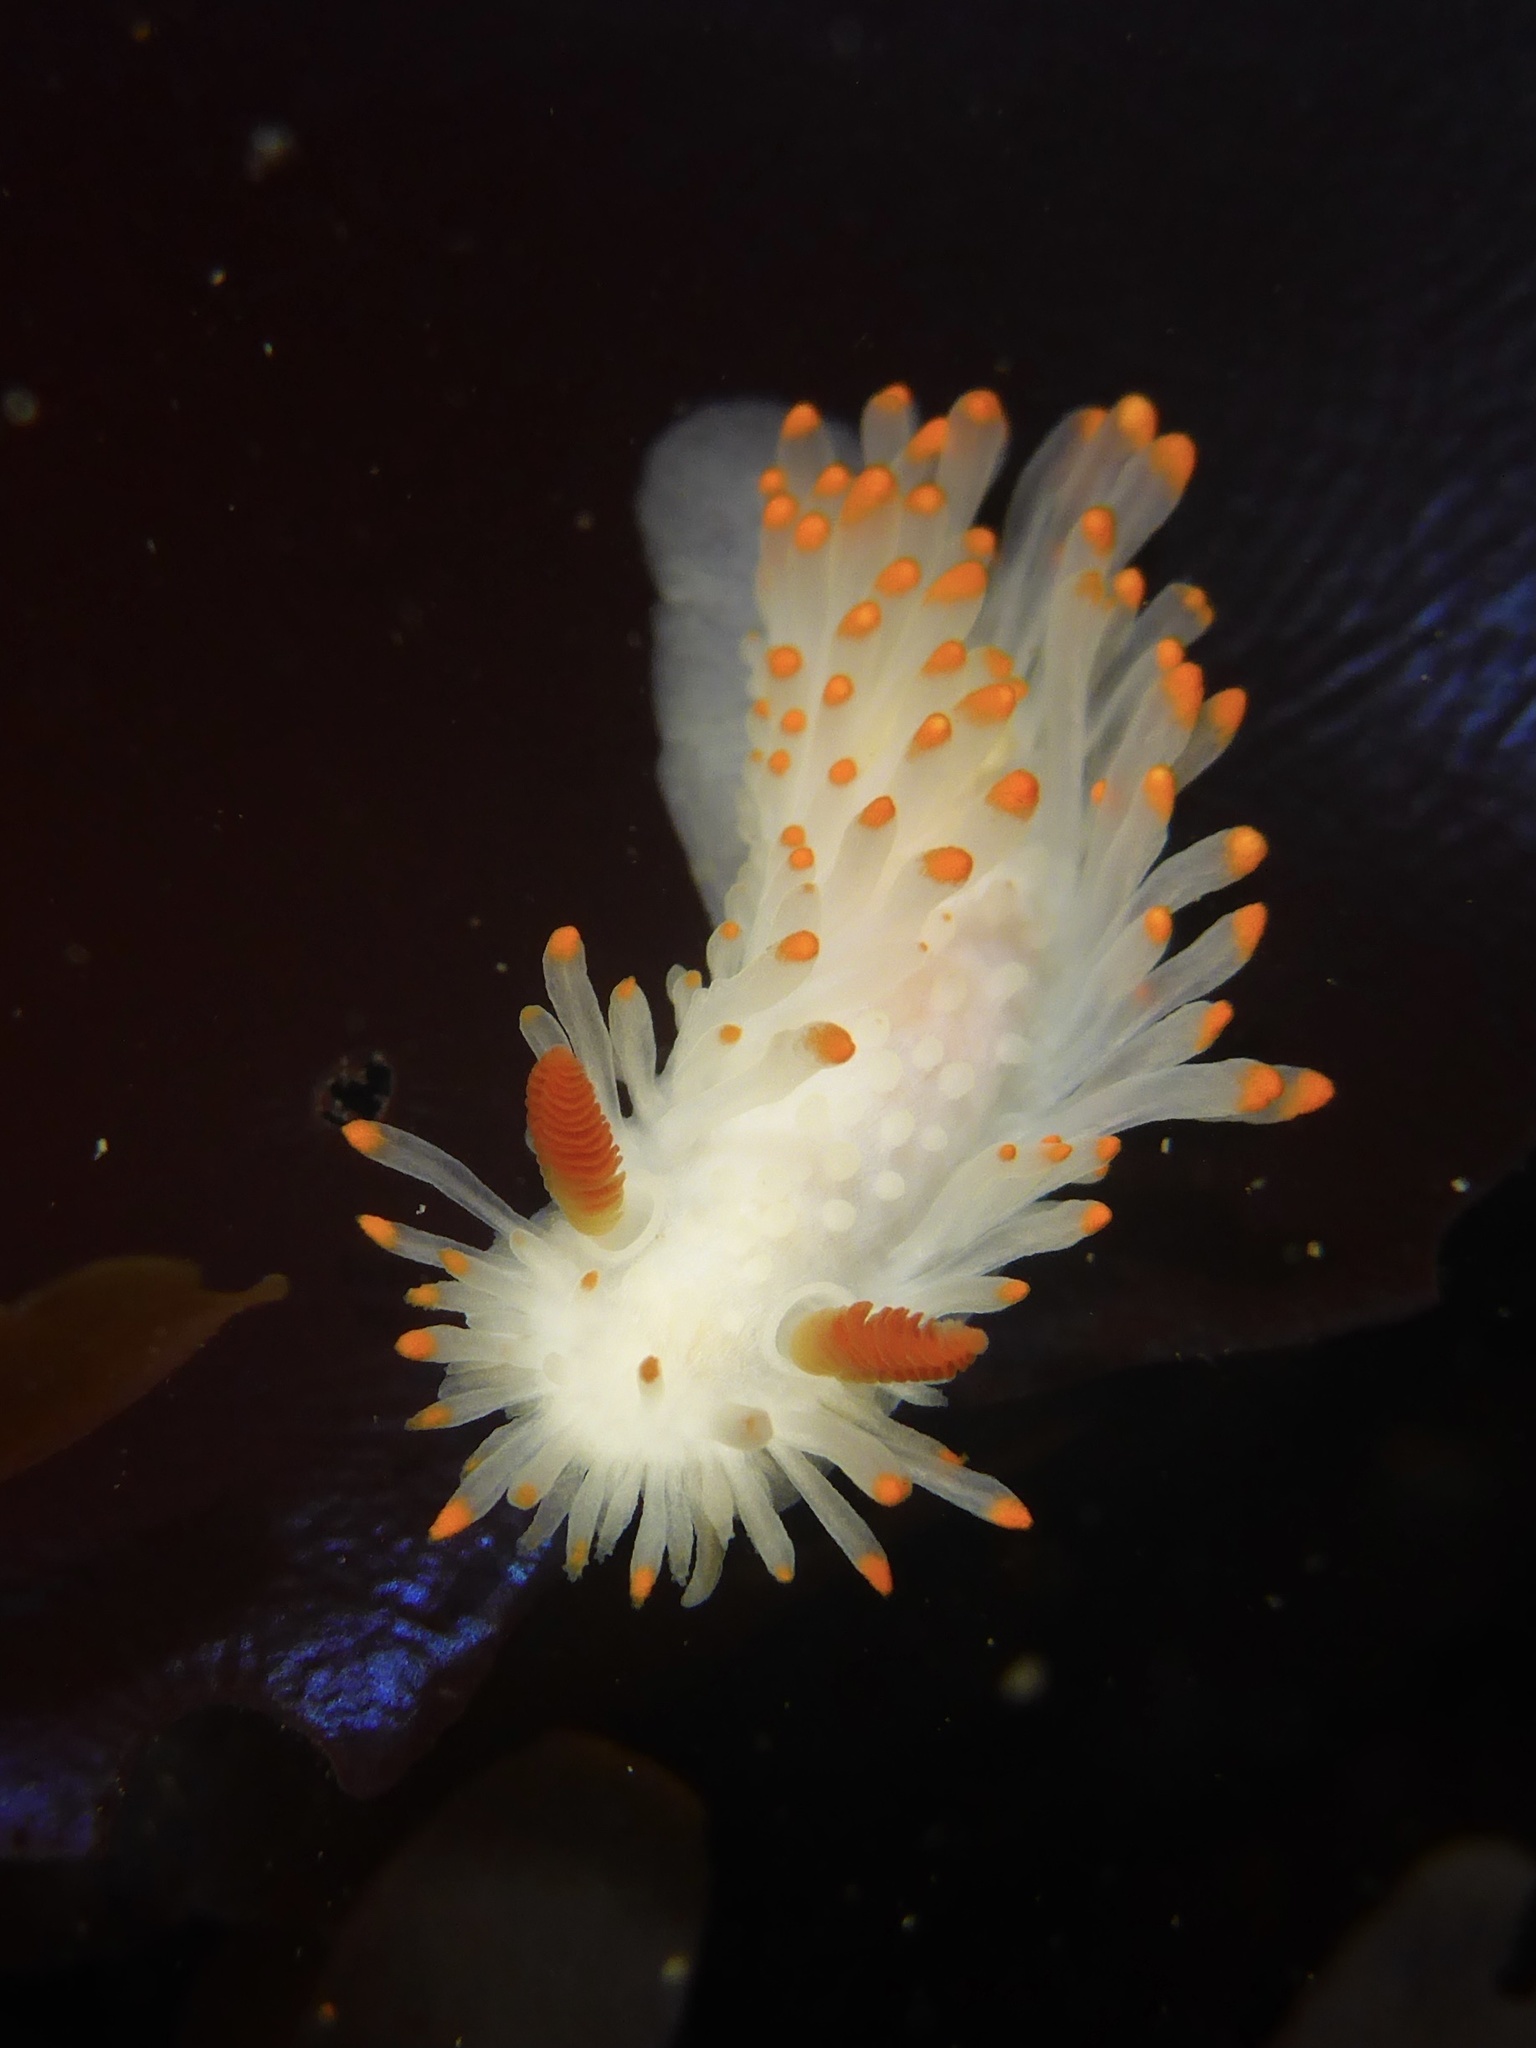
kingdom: Animalia
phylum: Mollusca
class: Gastropoda
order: Nudibranchia
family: Polyceridae
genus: Limacia
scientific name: Limacia cockerelli
